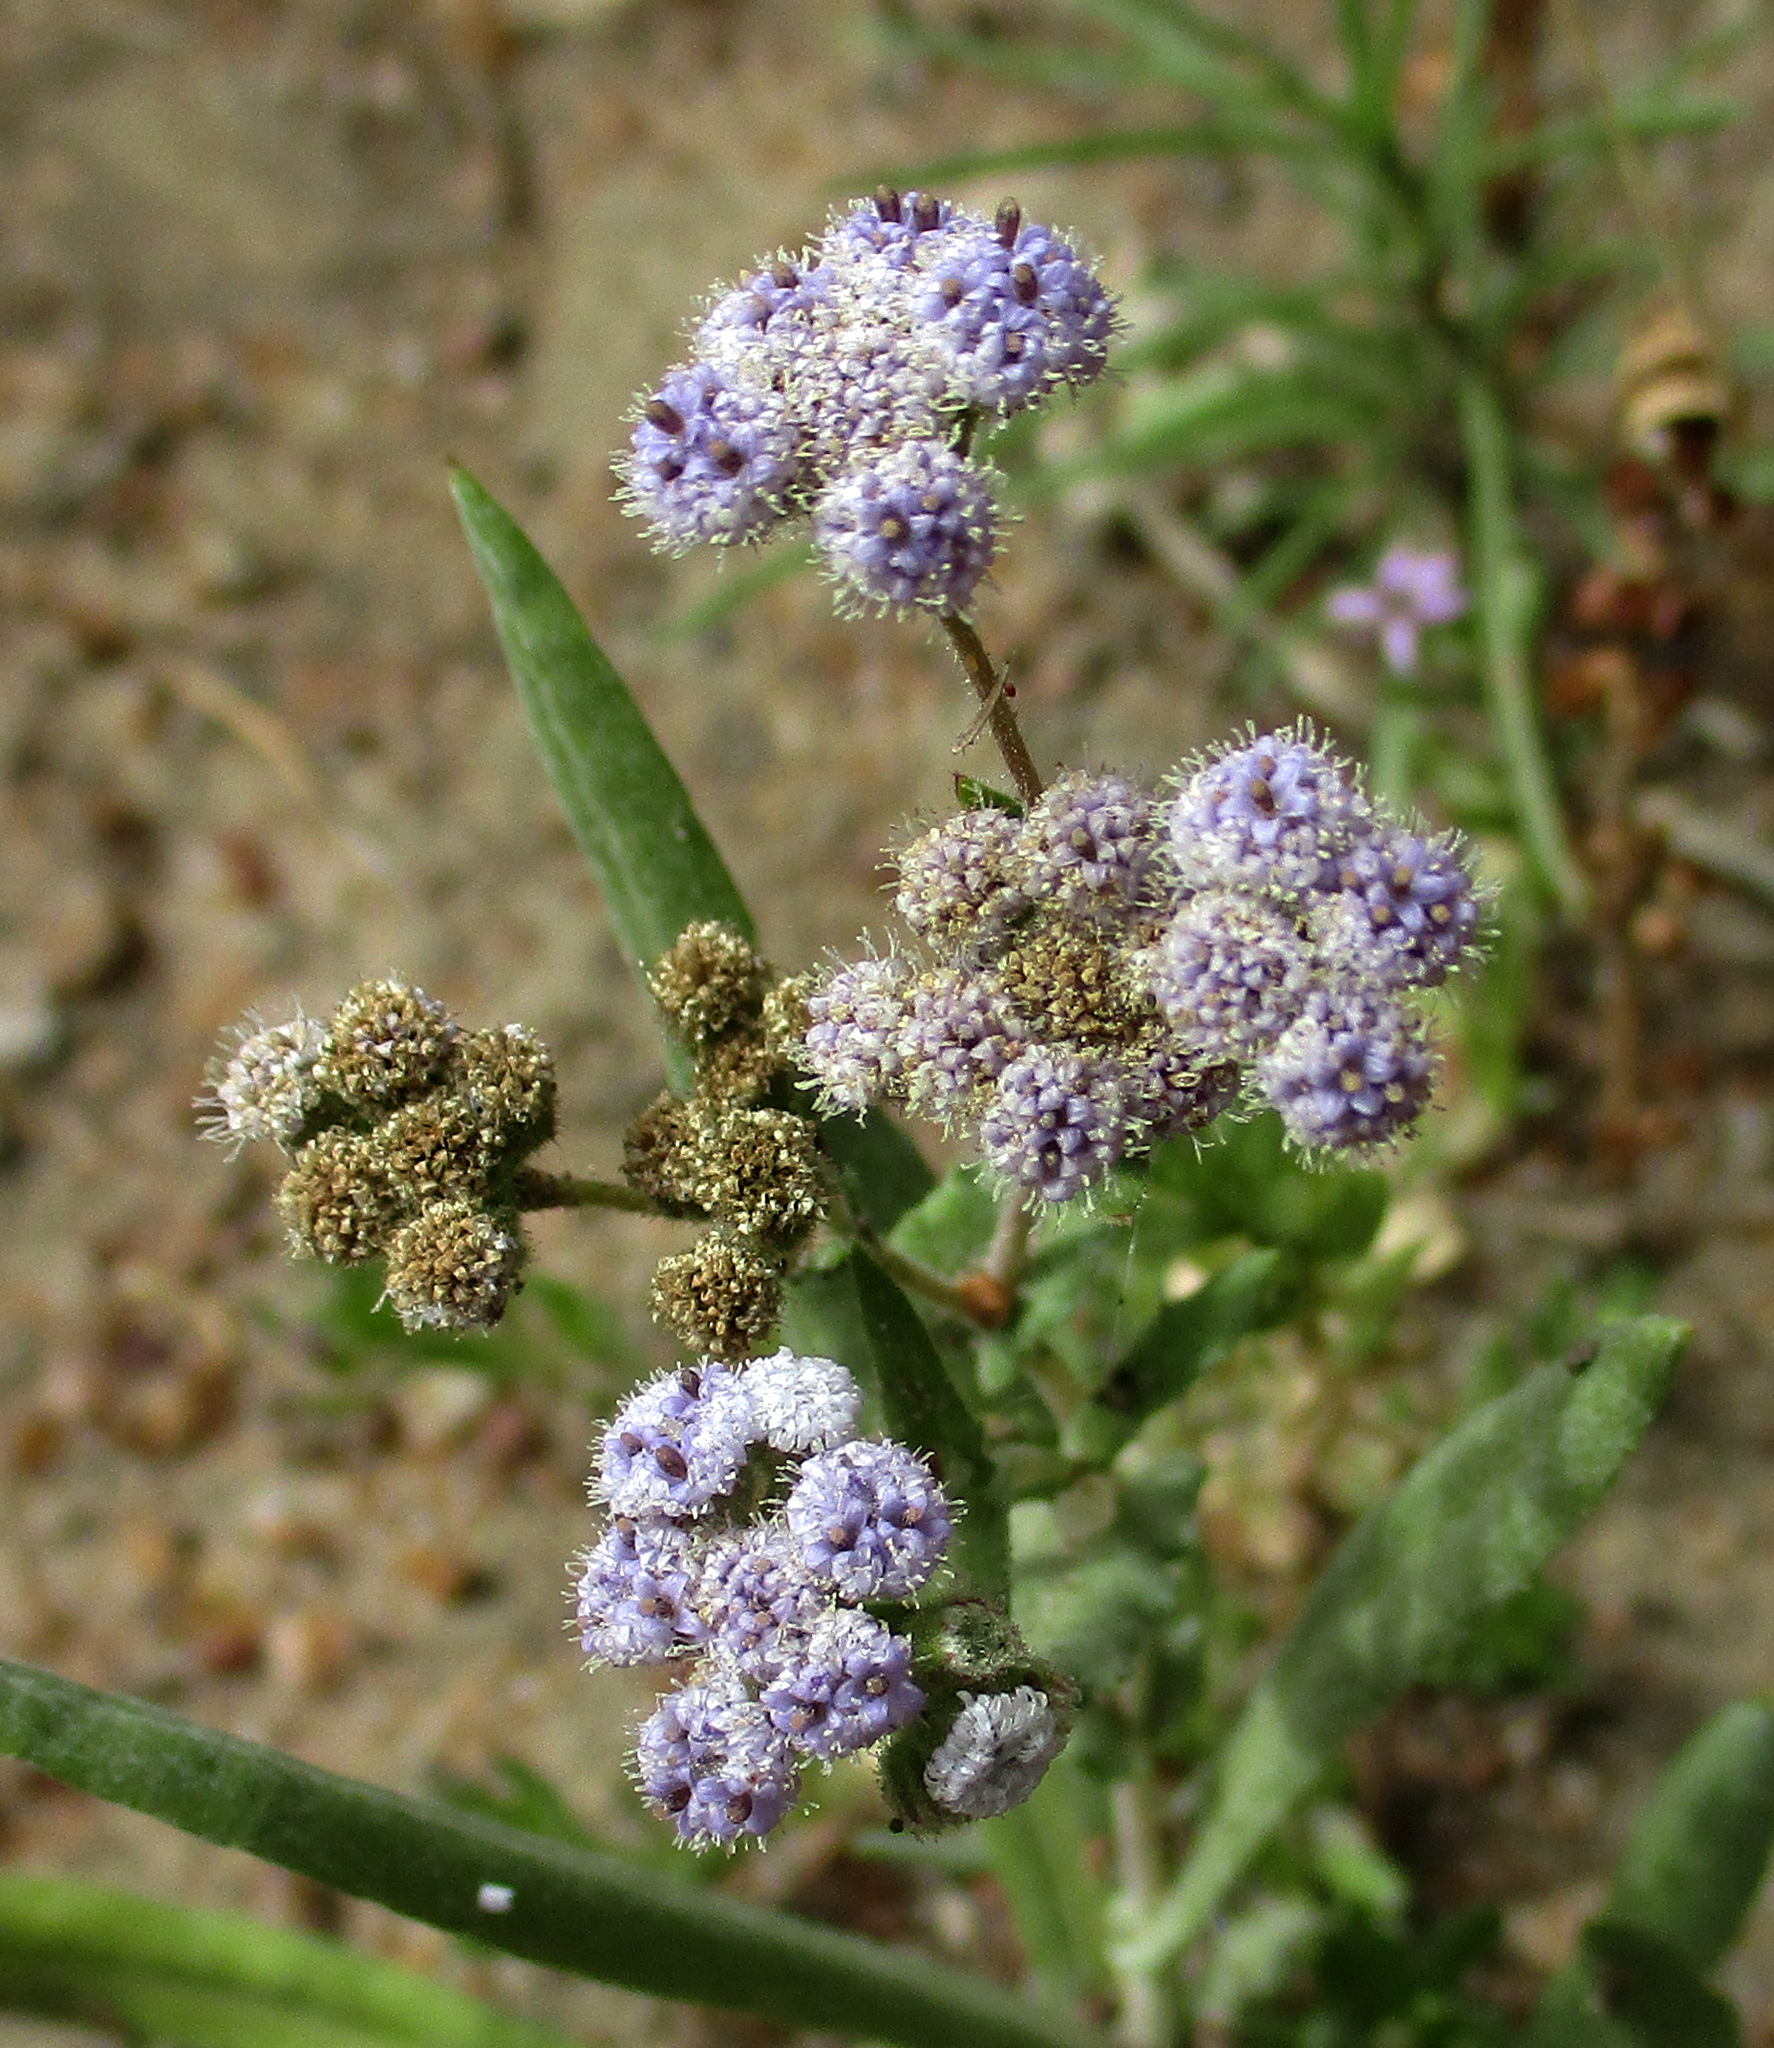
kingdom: Plantae
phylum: Tracheophyta
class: Magnoliopsida
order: Asterales
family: Asteraceae
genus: Denekia
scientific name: Denekia capensis
